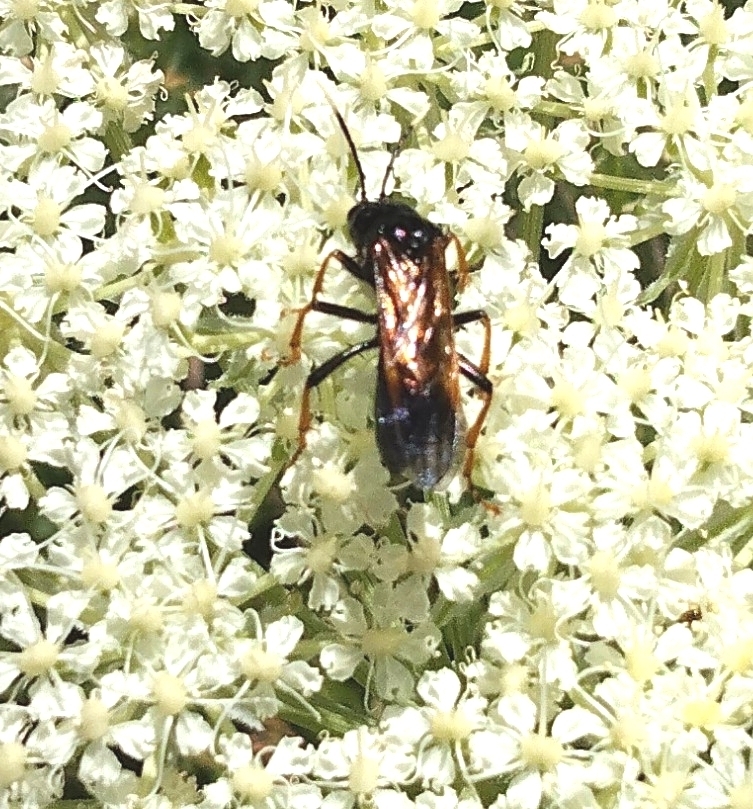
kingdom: Animalia
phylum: Arthropoda
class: Insecta
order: Hymenoptera
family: Tenthredinidae
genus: Tenthredo
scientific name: Tenthredo crassa
